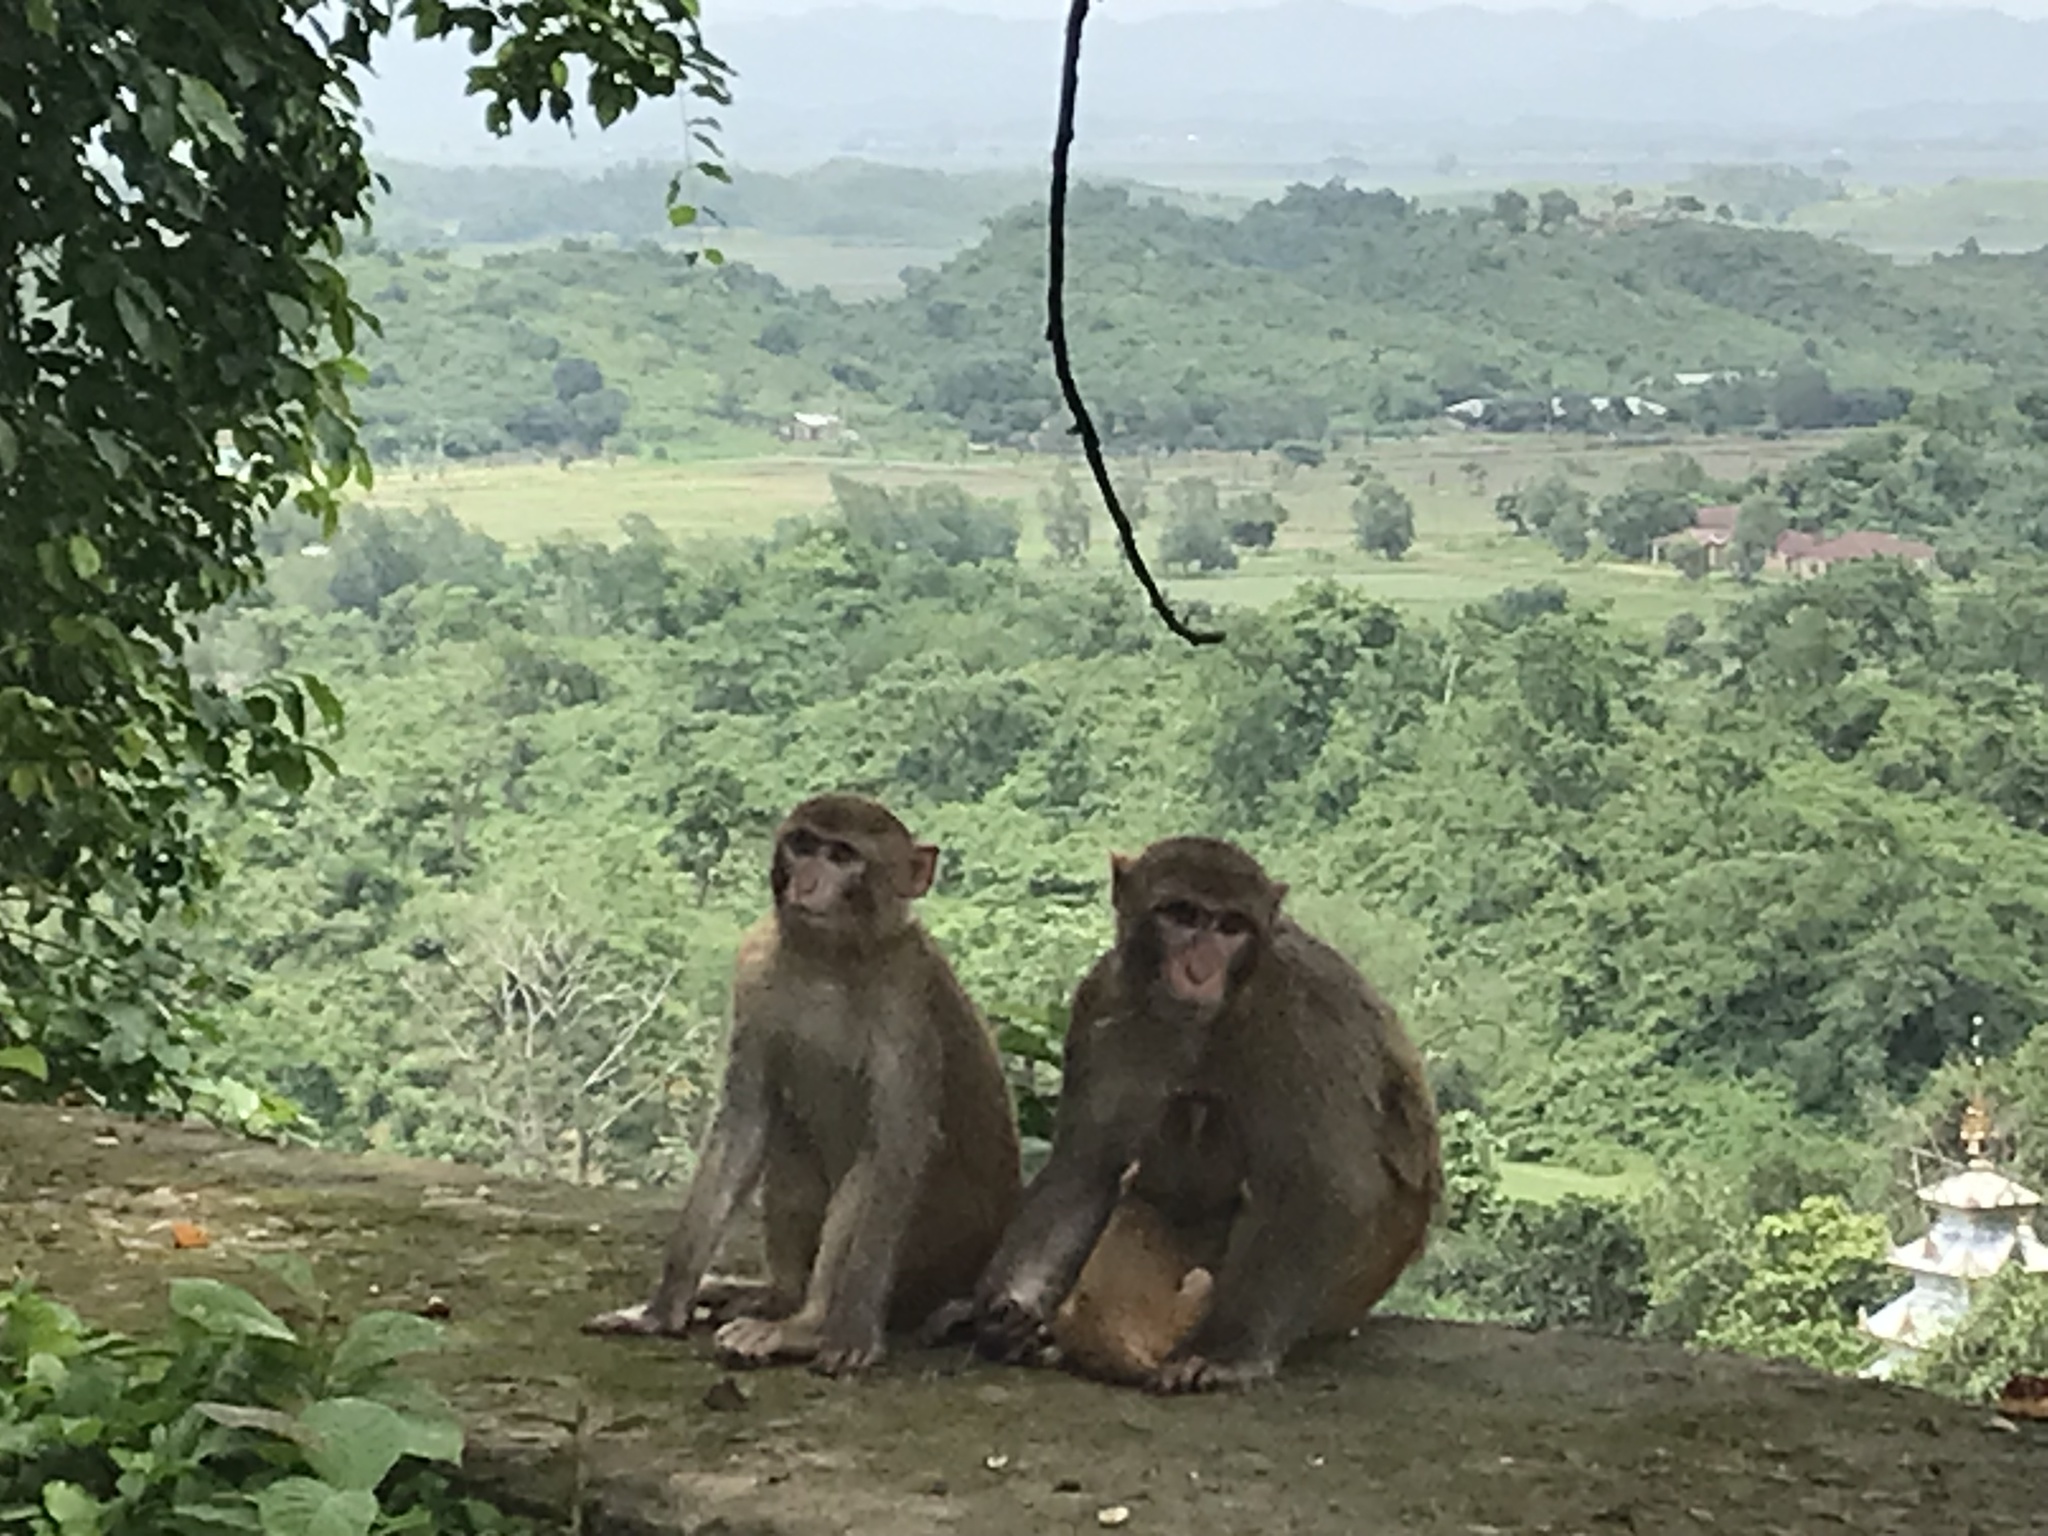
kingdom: Animalia
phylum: Chordata
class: Mammalia
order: Primates
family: Cercopithecidae
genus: Macaca
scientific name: Macaca mulatta
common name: Rhesus monkey
